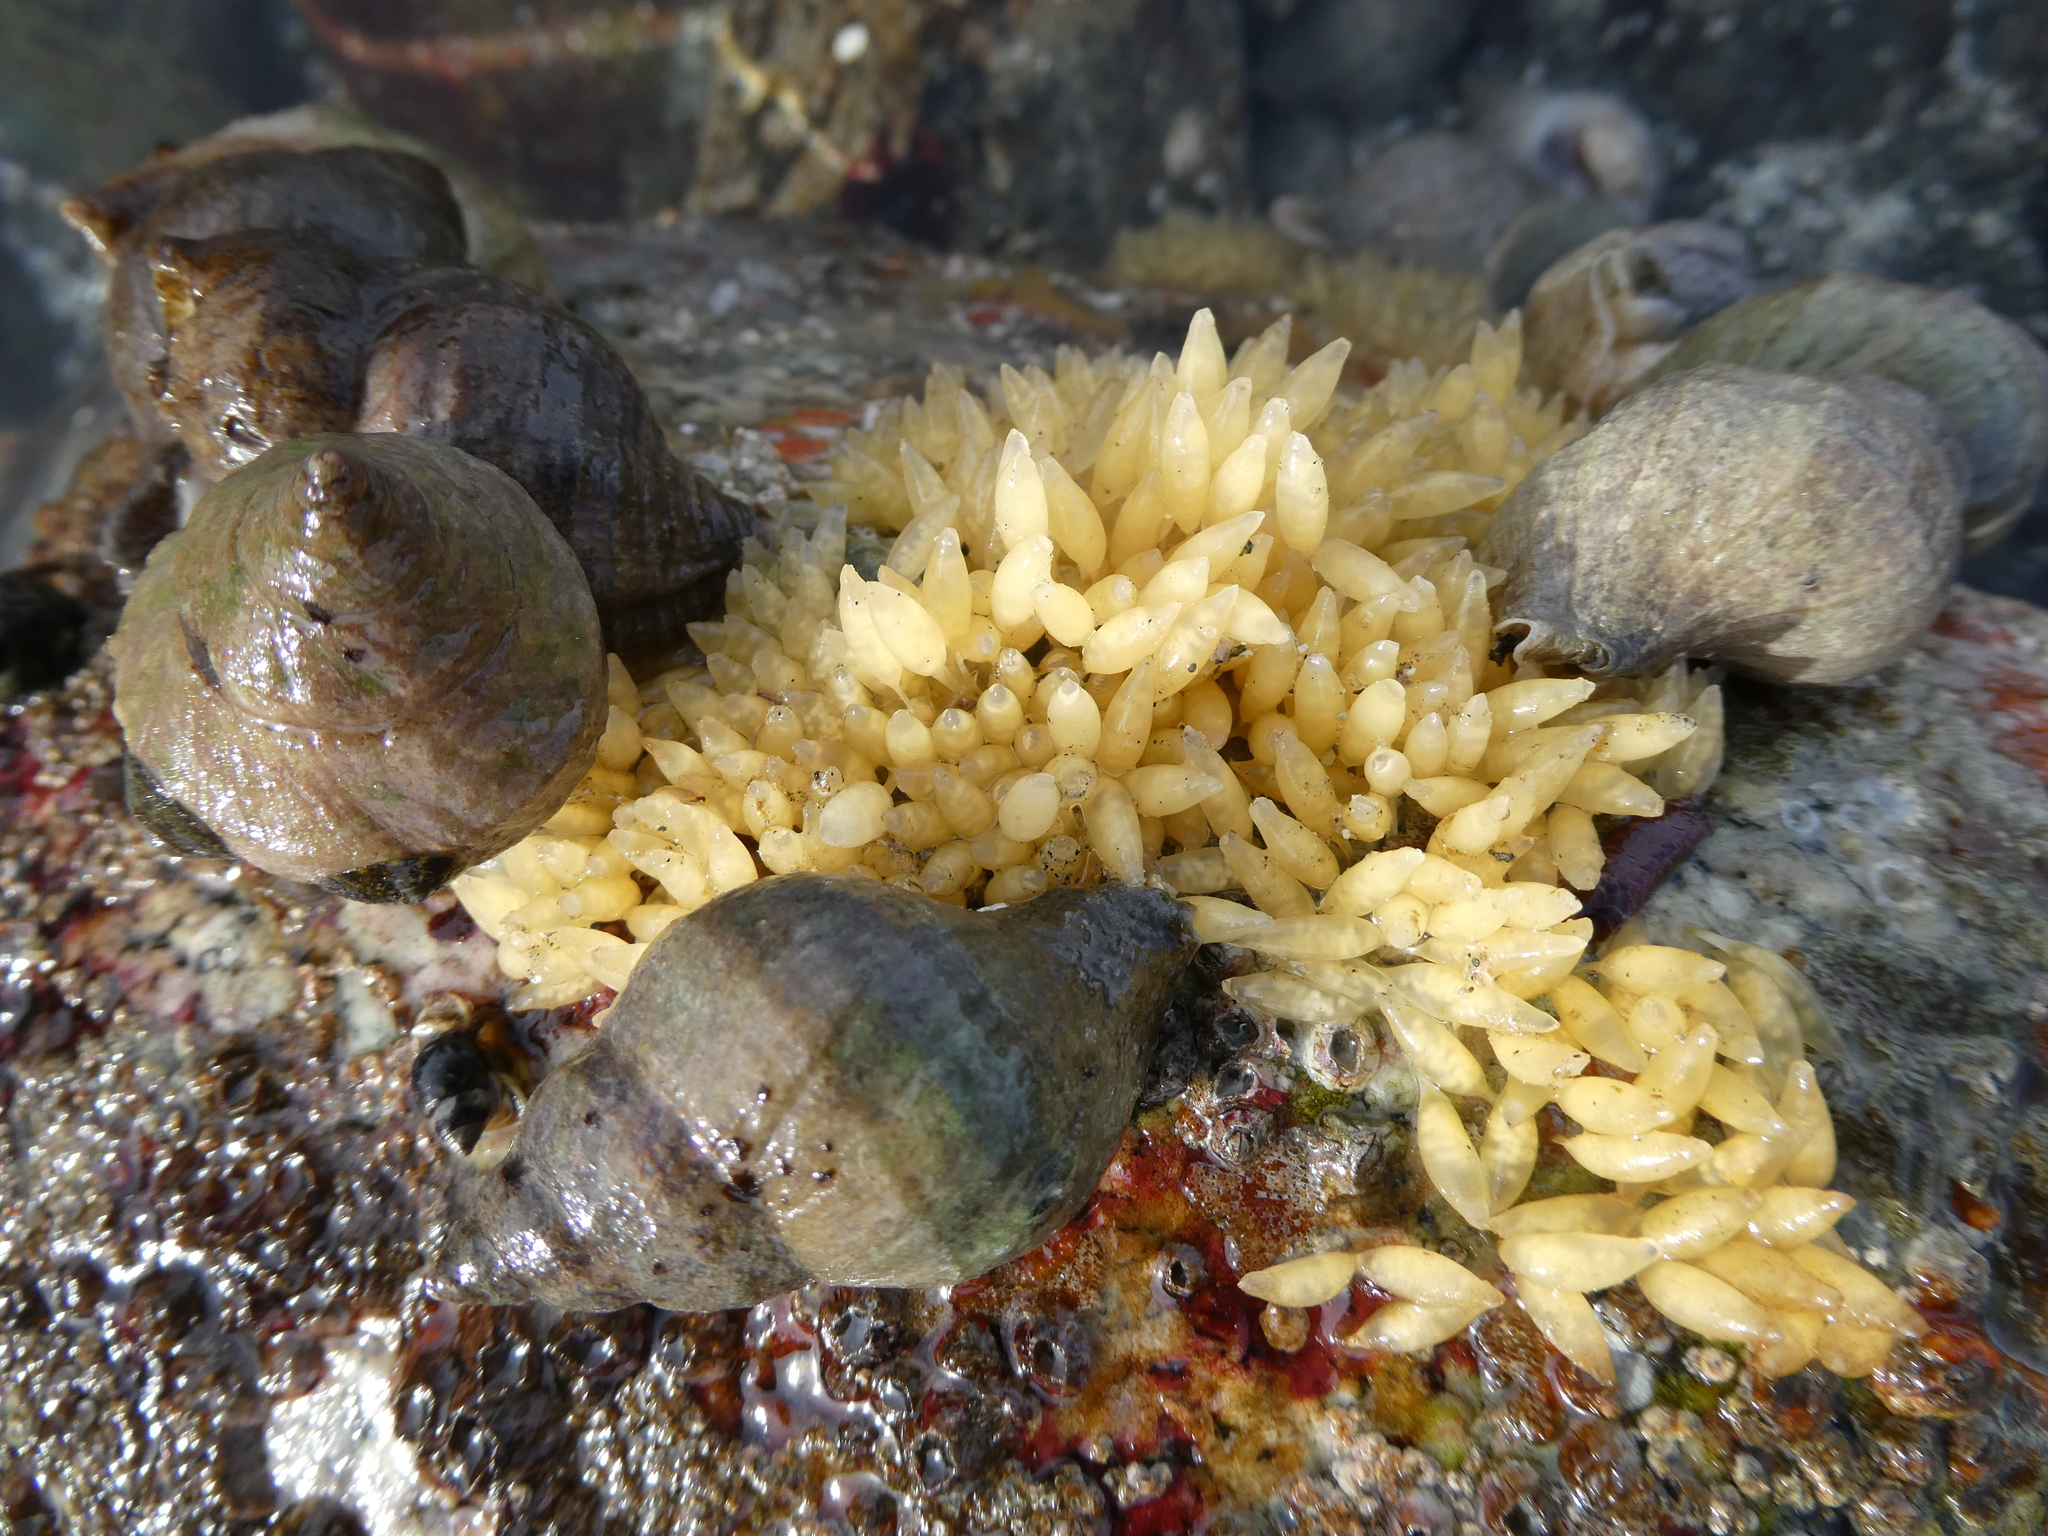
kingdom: Animalia
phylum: Mollusca
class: Gastropoda
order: Neogastropoda
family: Muricidae
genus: Nucella
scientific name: Nucella lamellosa
